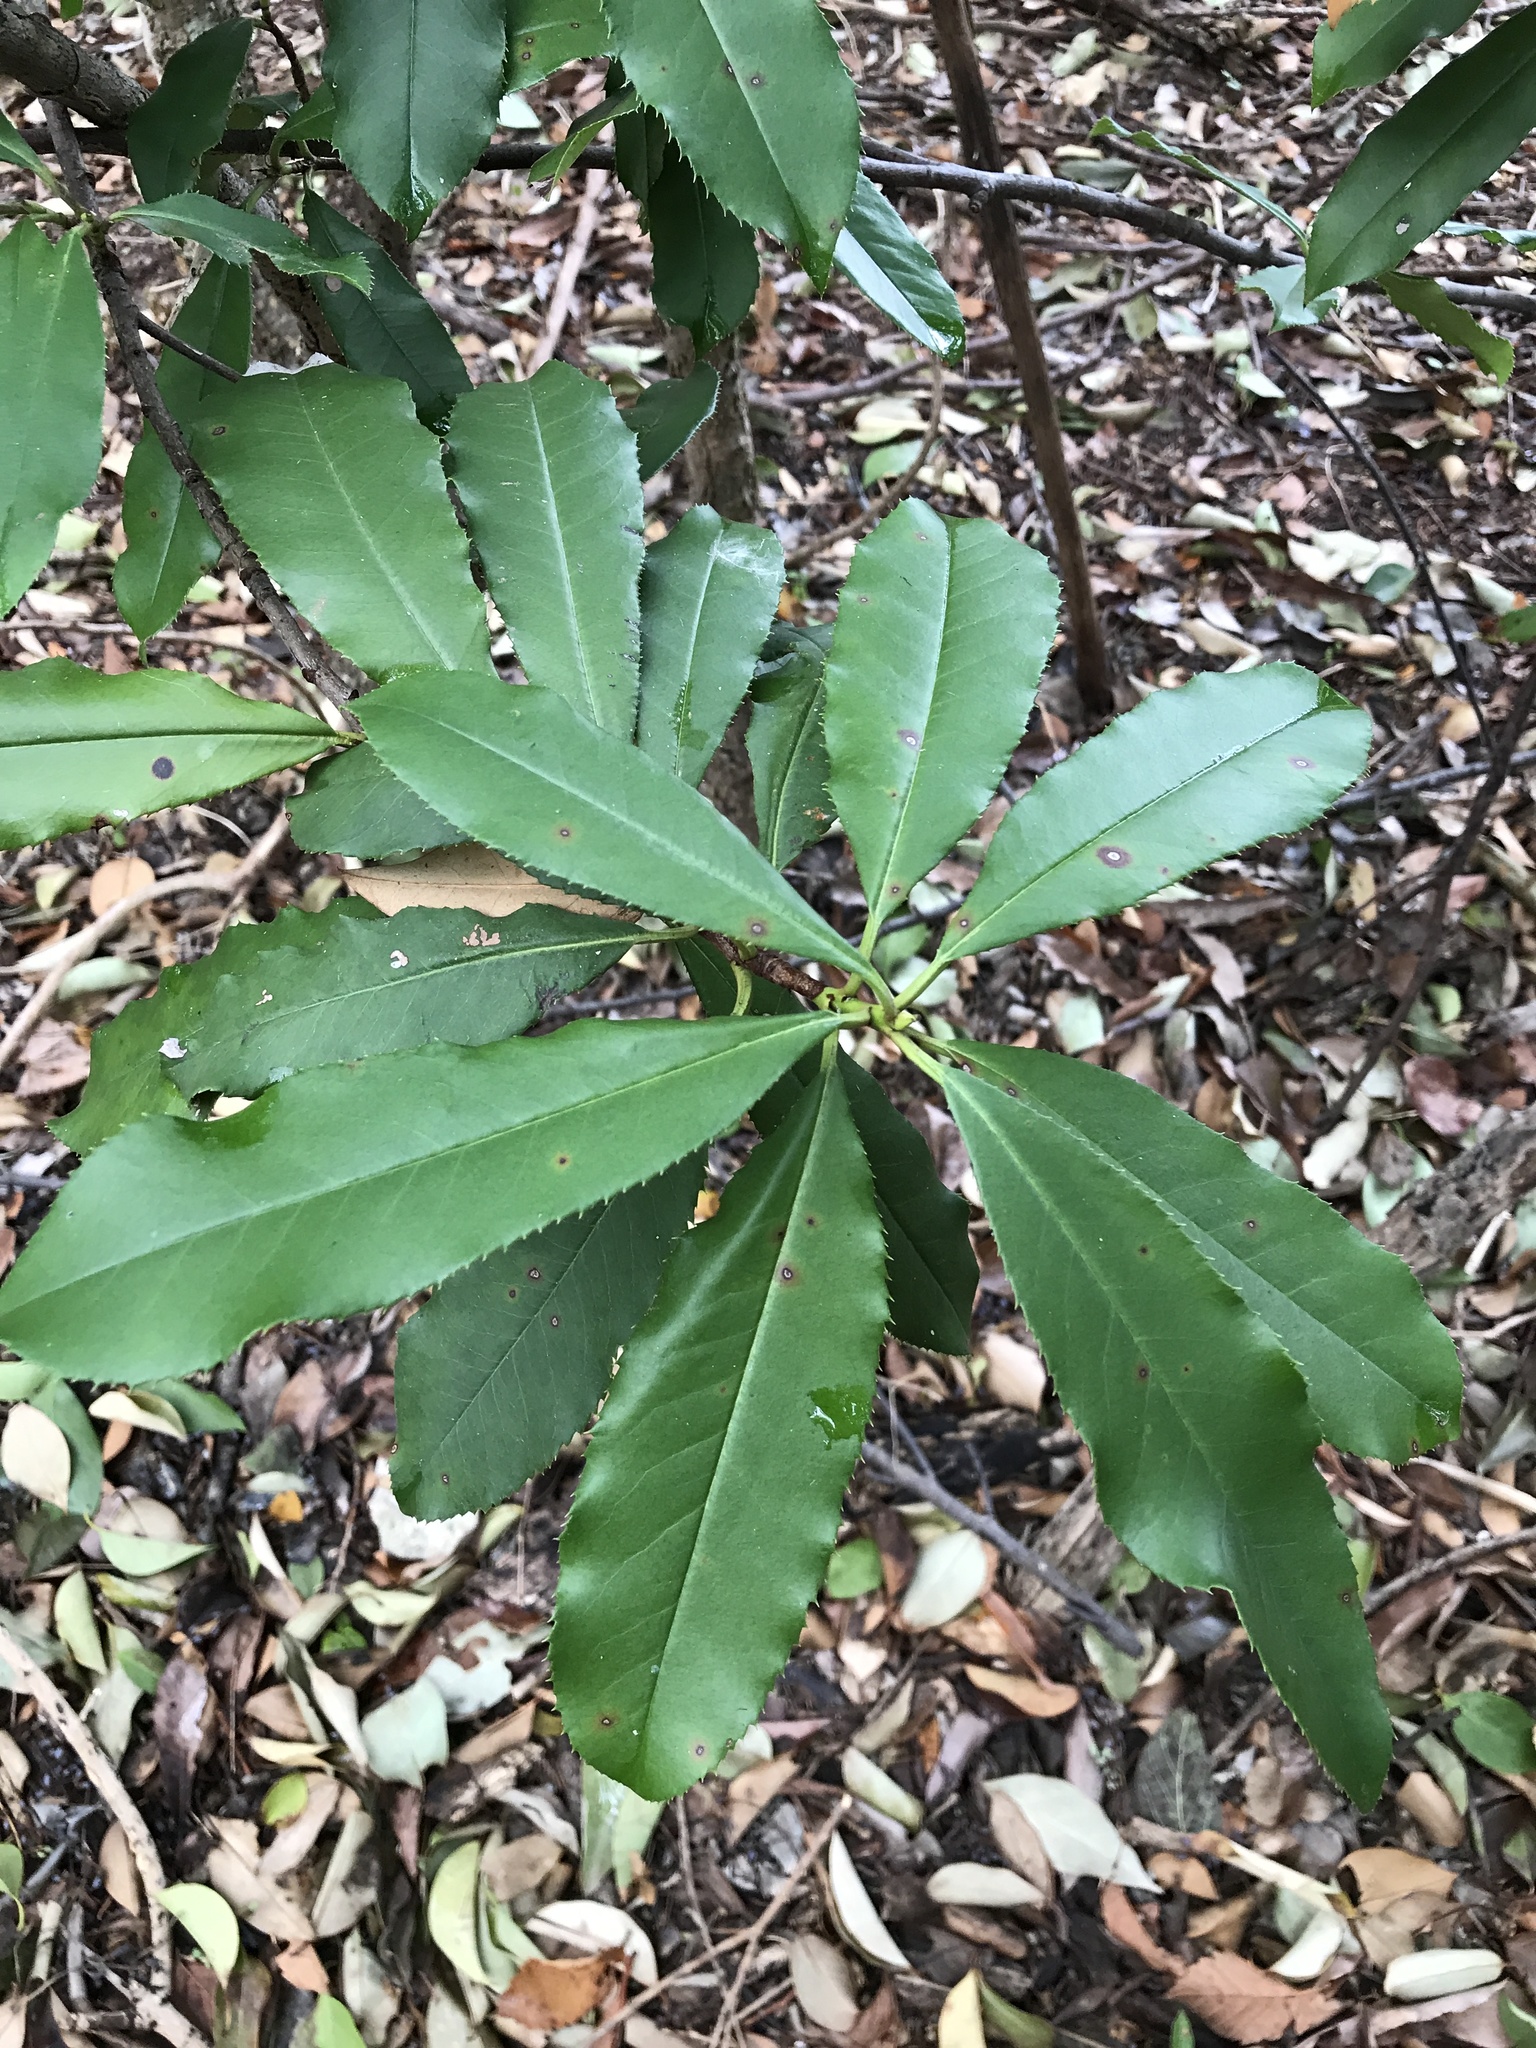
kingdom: Plantae
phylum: Tracheophyta
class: Magnoliopsida
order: Rosales
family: Rosaceae
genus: Photinia
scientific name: Photinia serratifolia
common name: Taiwanese photinia
